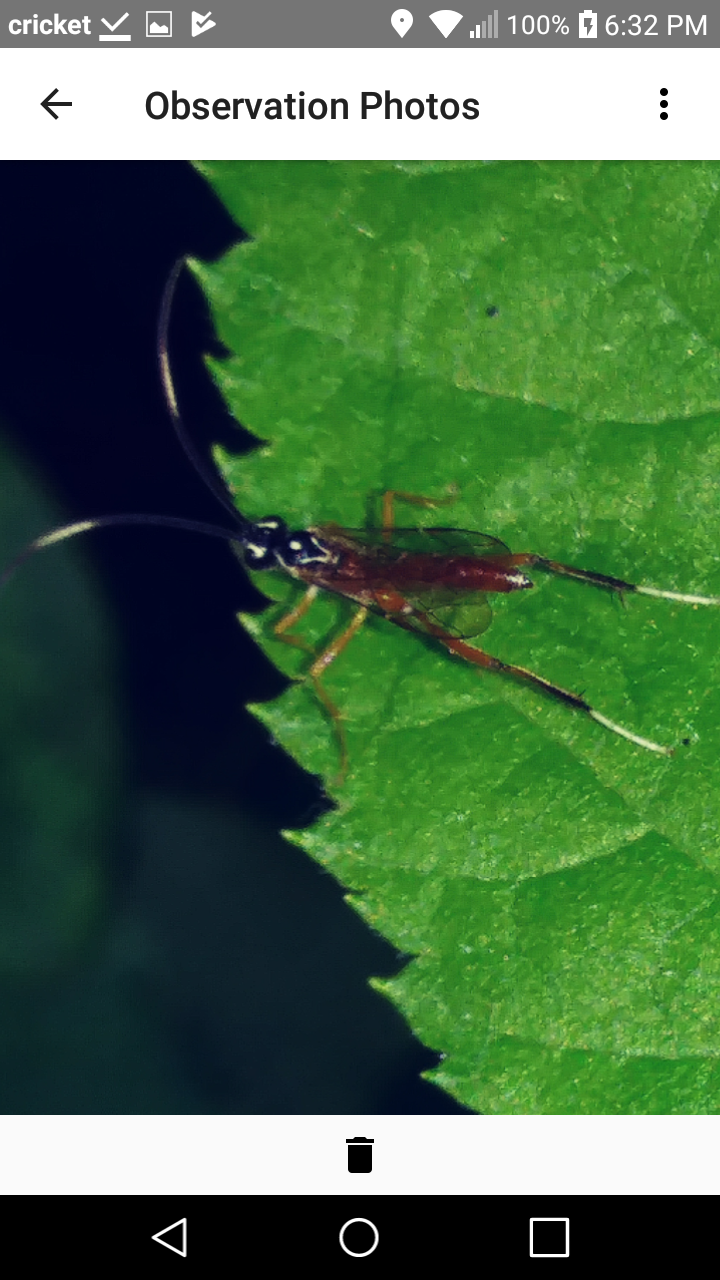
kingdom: Animalia
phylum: Arthropoda
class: Insecta
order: Hymenoptera
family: Ichneumonidae
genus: Mesostenus
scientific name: Mesostenus thoracicus
